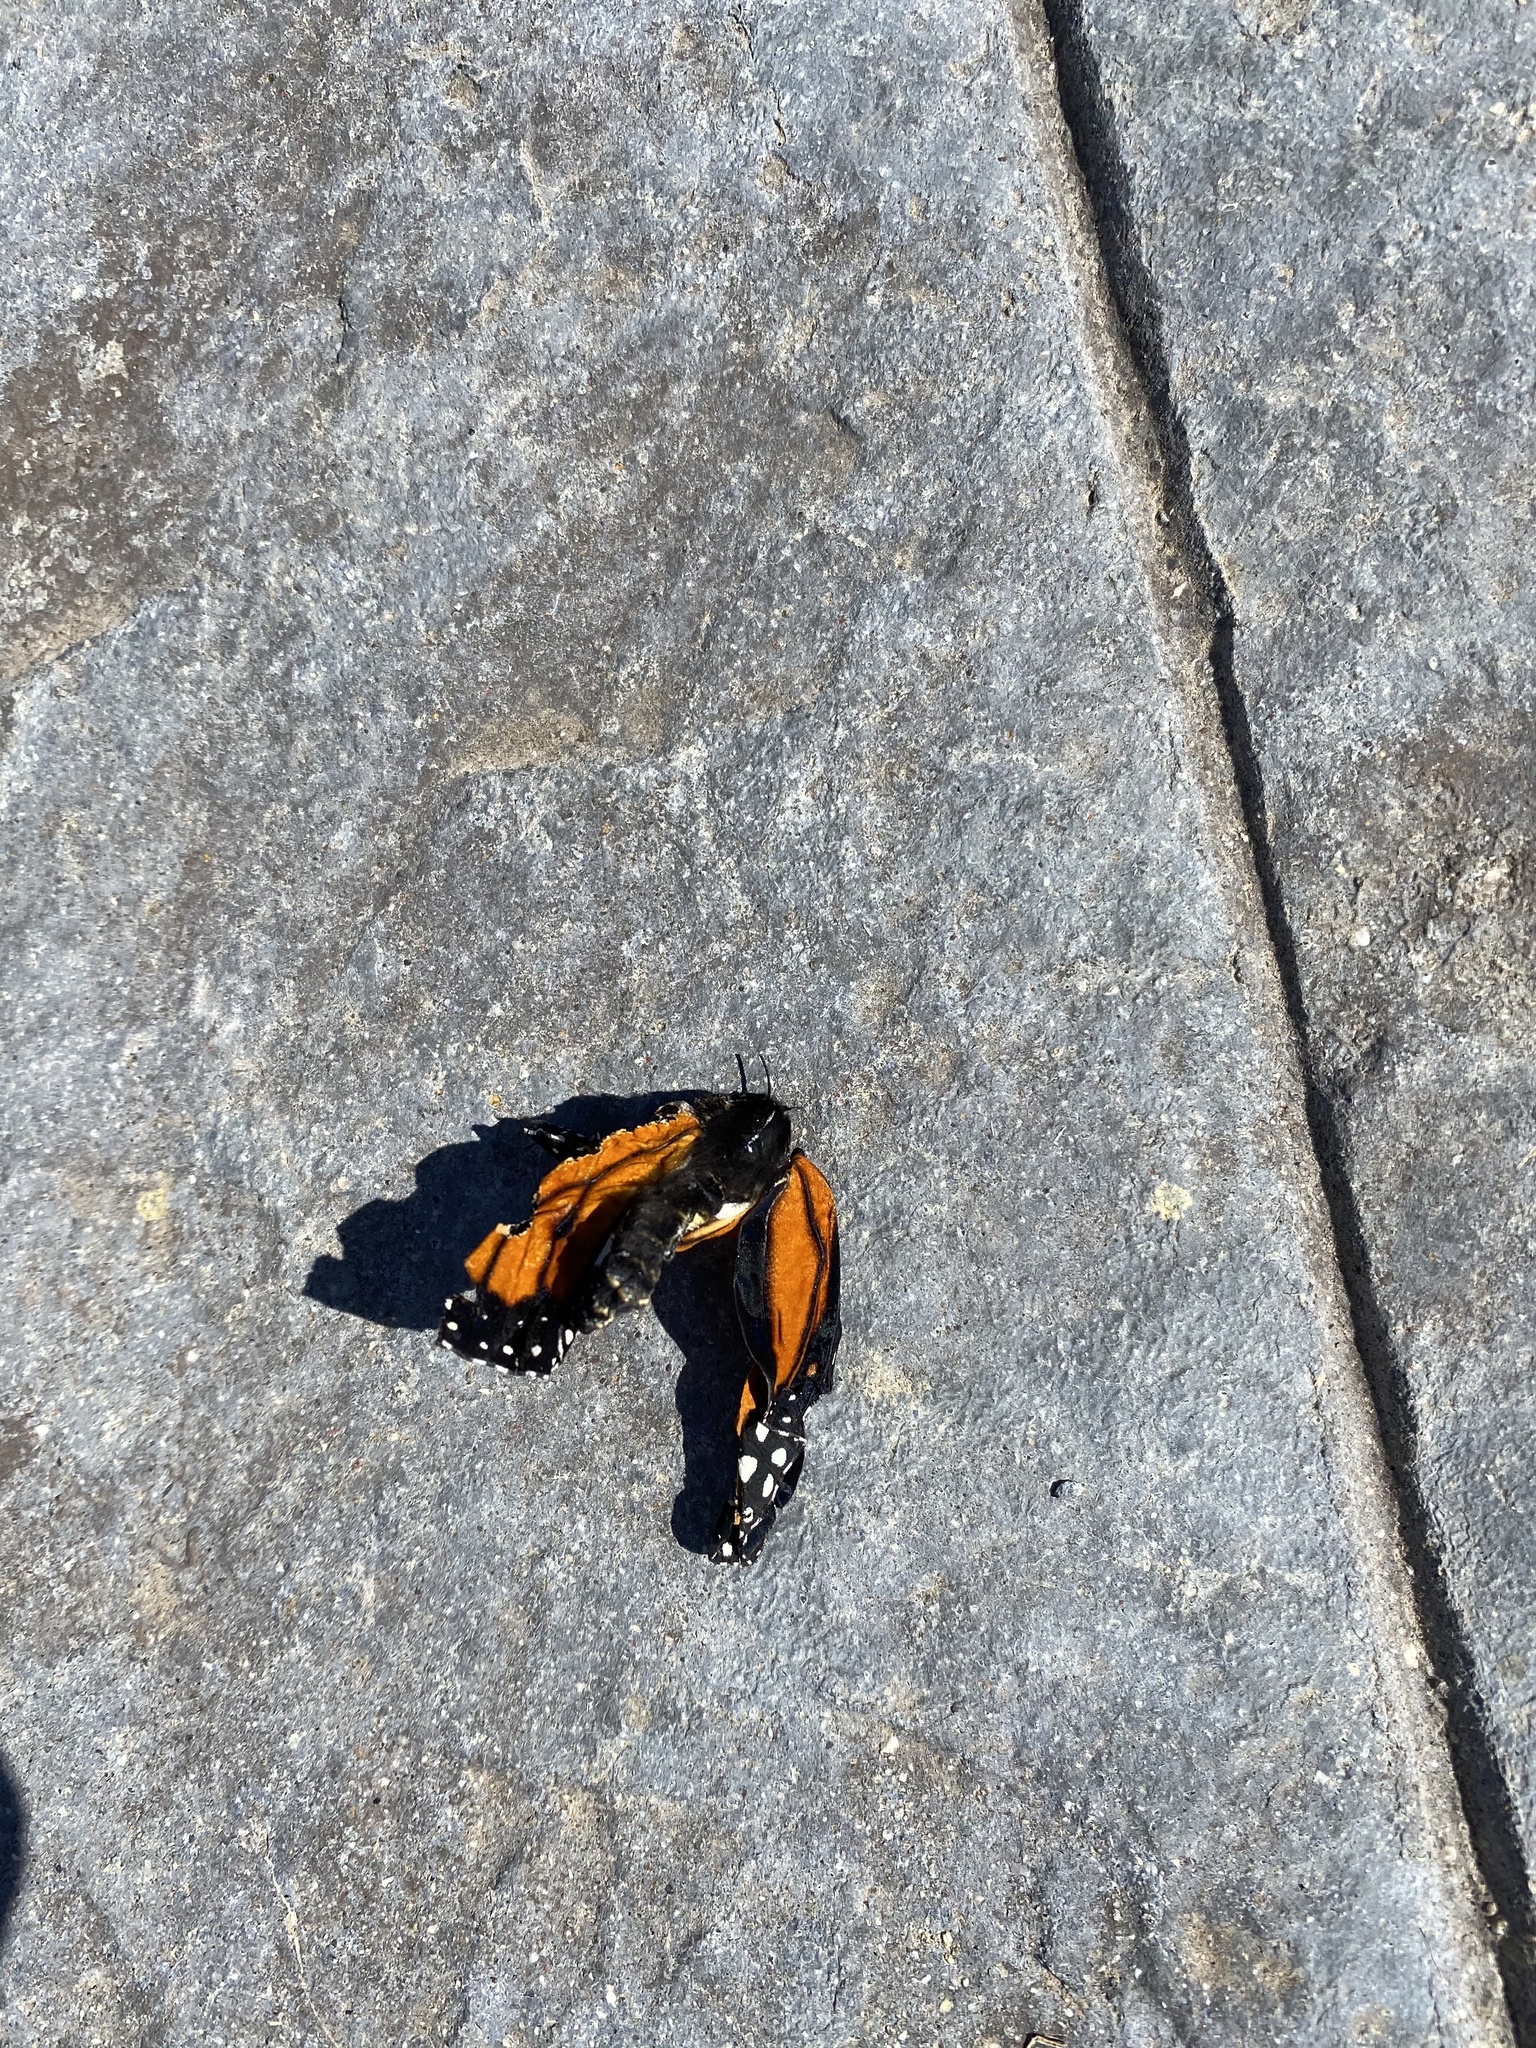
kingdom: Animalia
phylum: Arthropoda
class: Insecta
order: Lepidoptera
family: Nymphalidae
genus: Danaus
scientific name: Danaus plexippus
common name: Monarch
